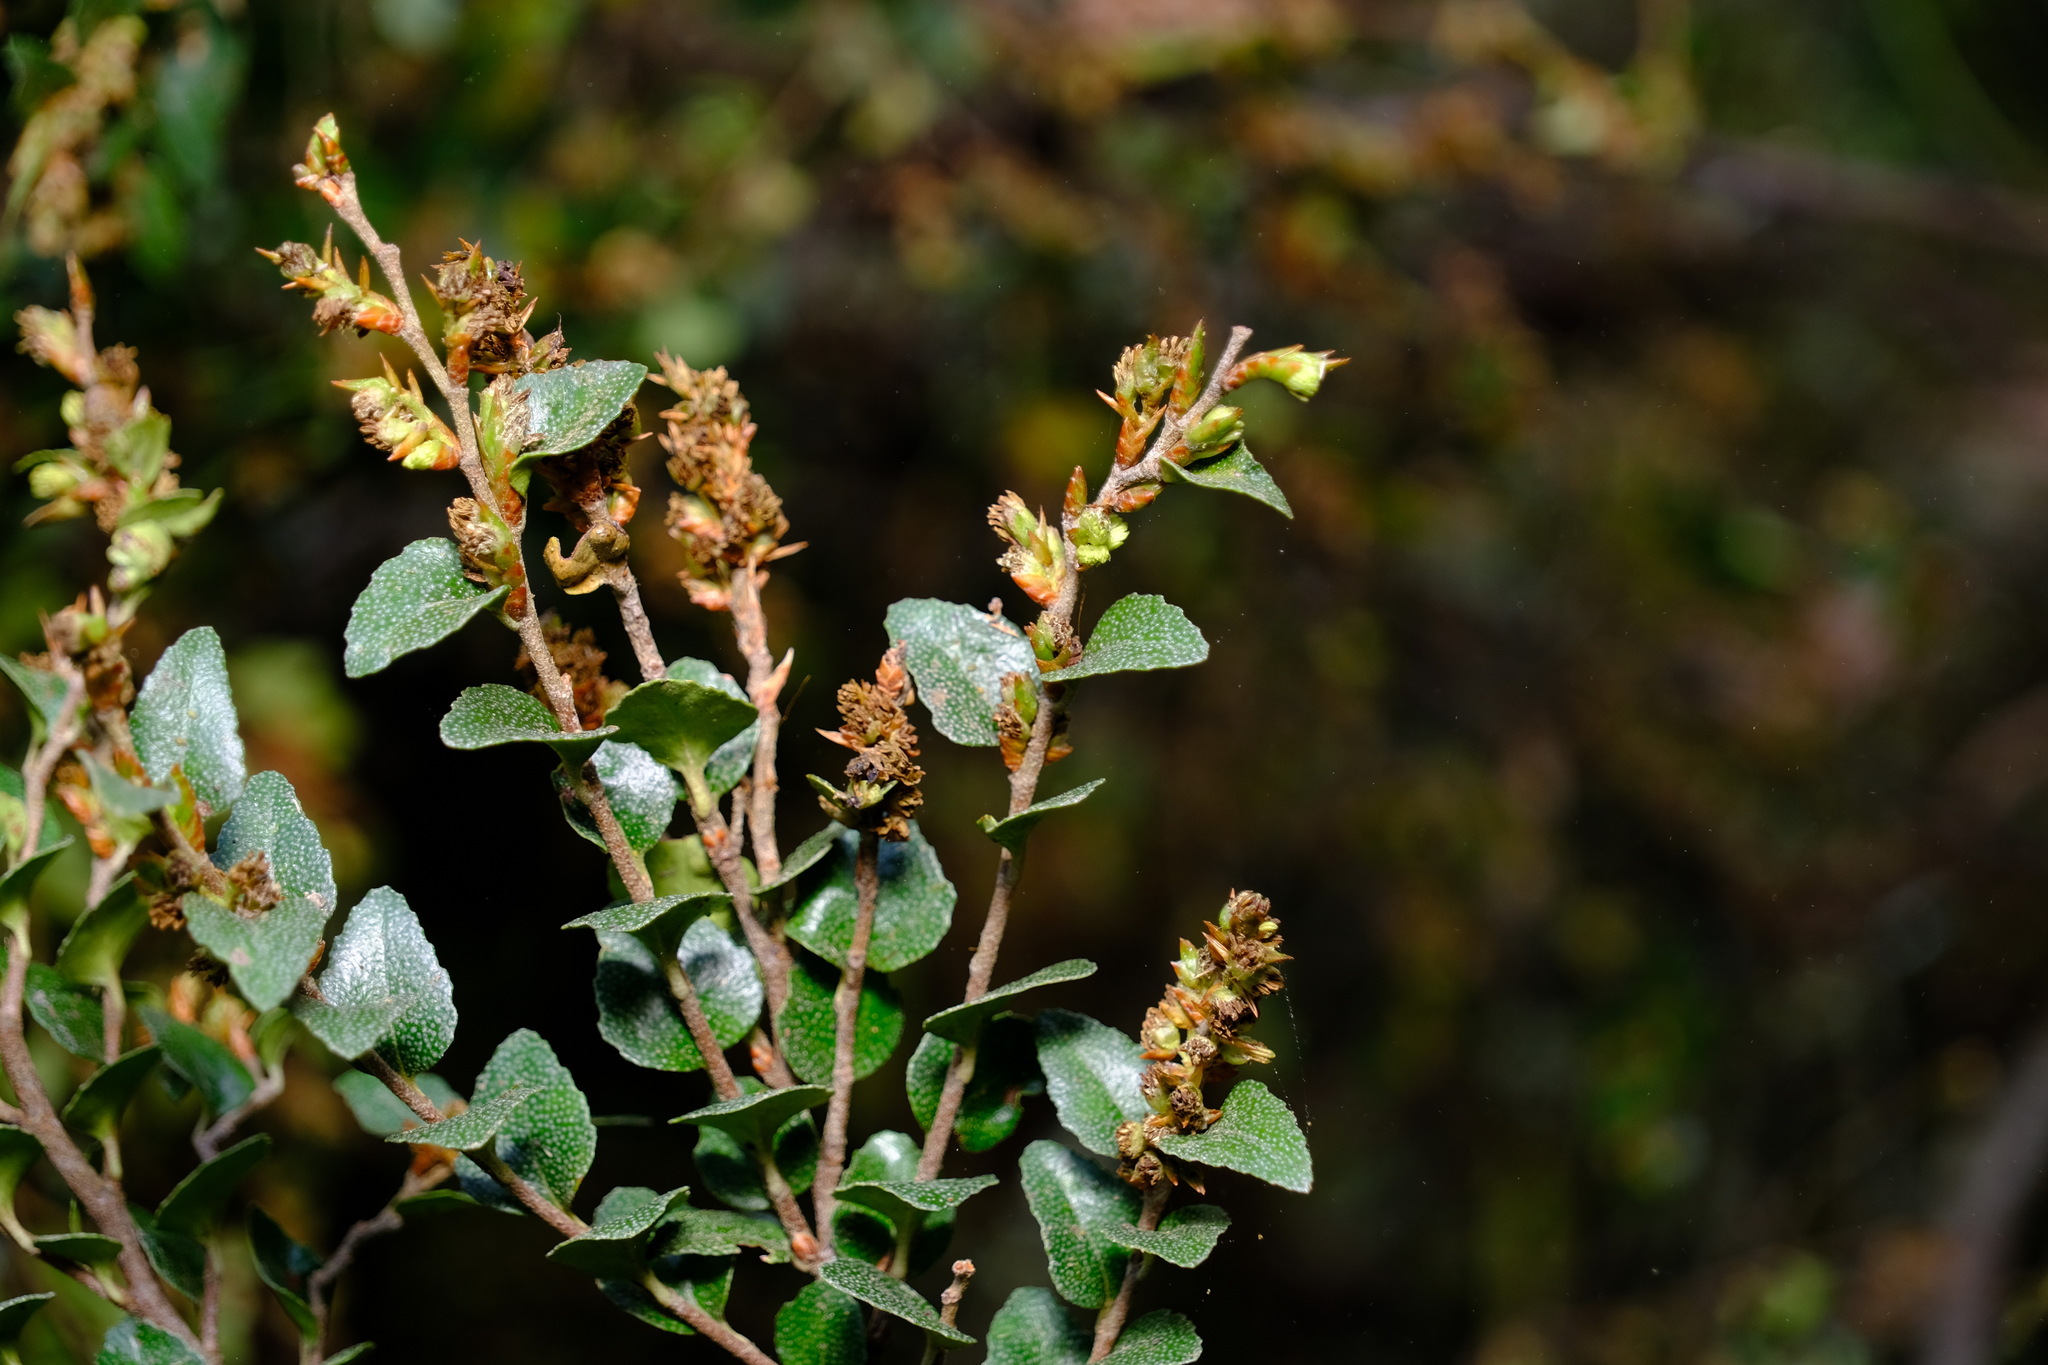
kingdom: Plantae
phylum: Tracheophyta
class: Magnoliopsida
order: Fagales
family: Nothofagaceae
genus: Nothofagus
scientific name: Nothofagus cunninghamii
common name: Myrtle beech
